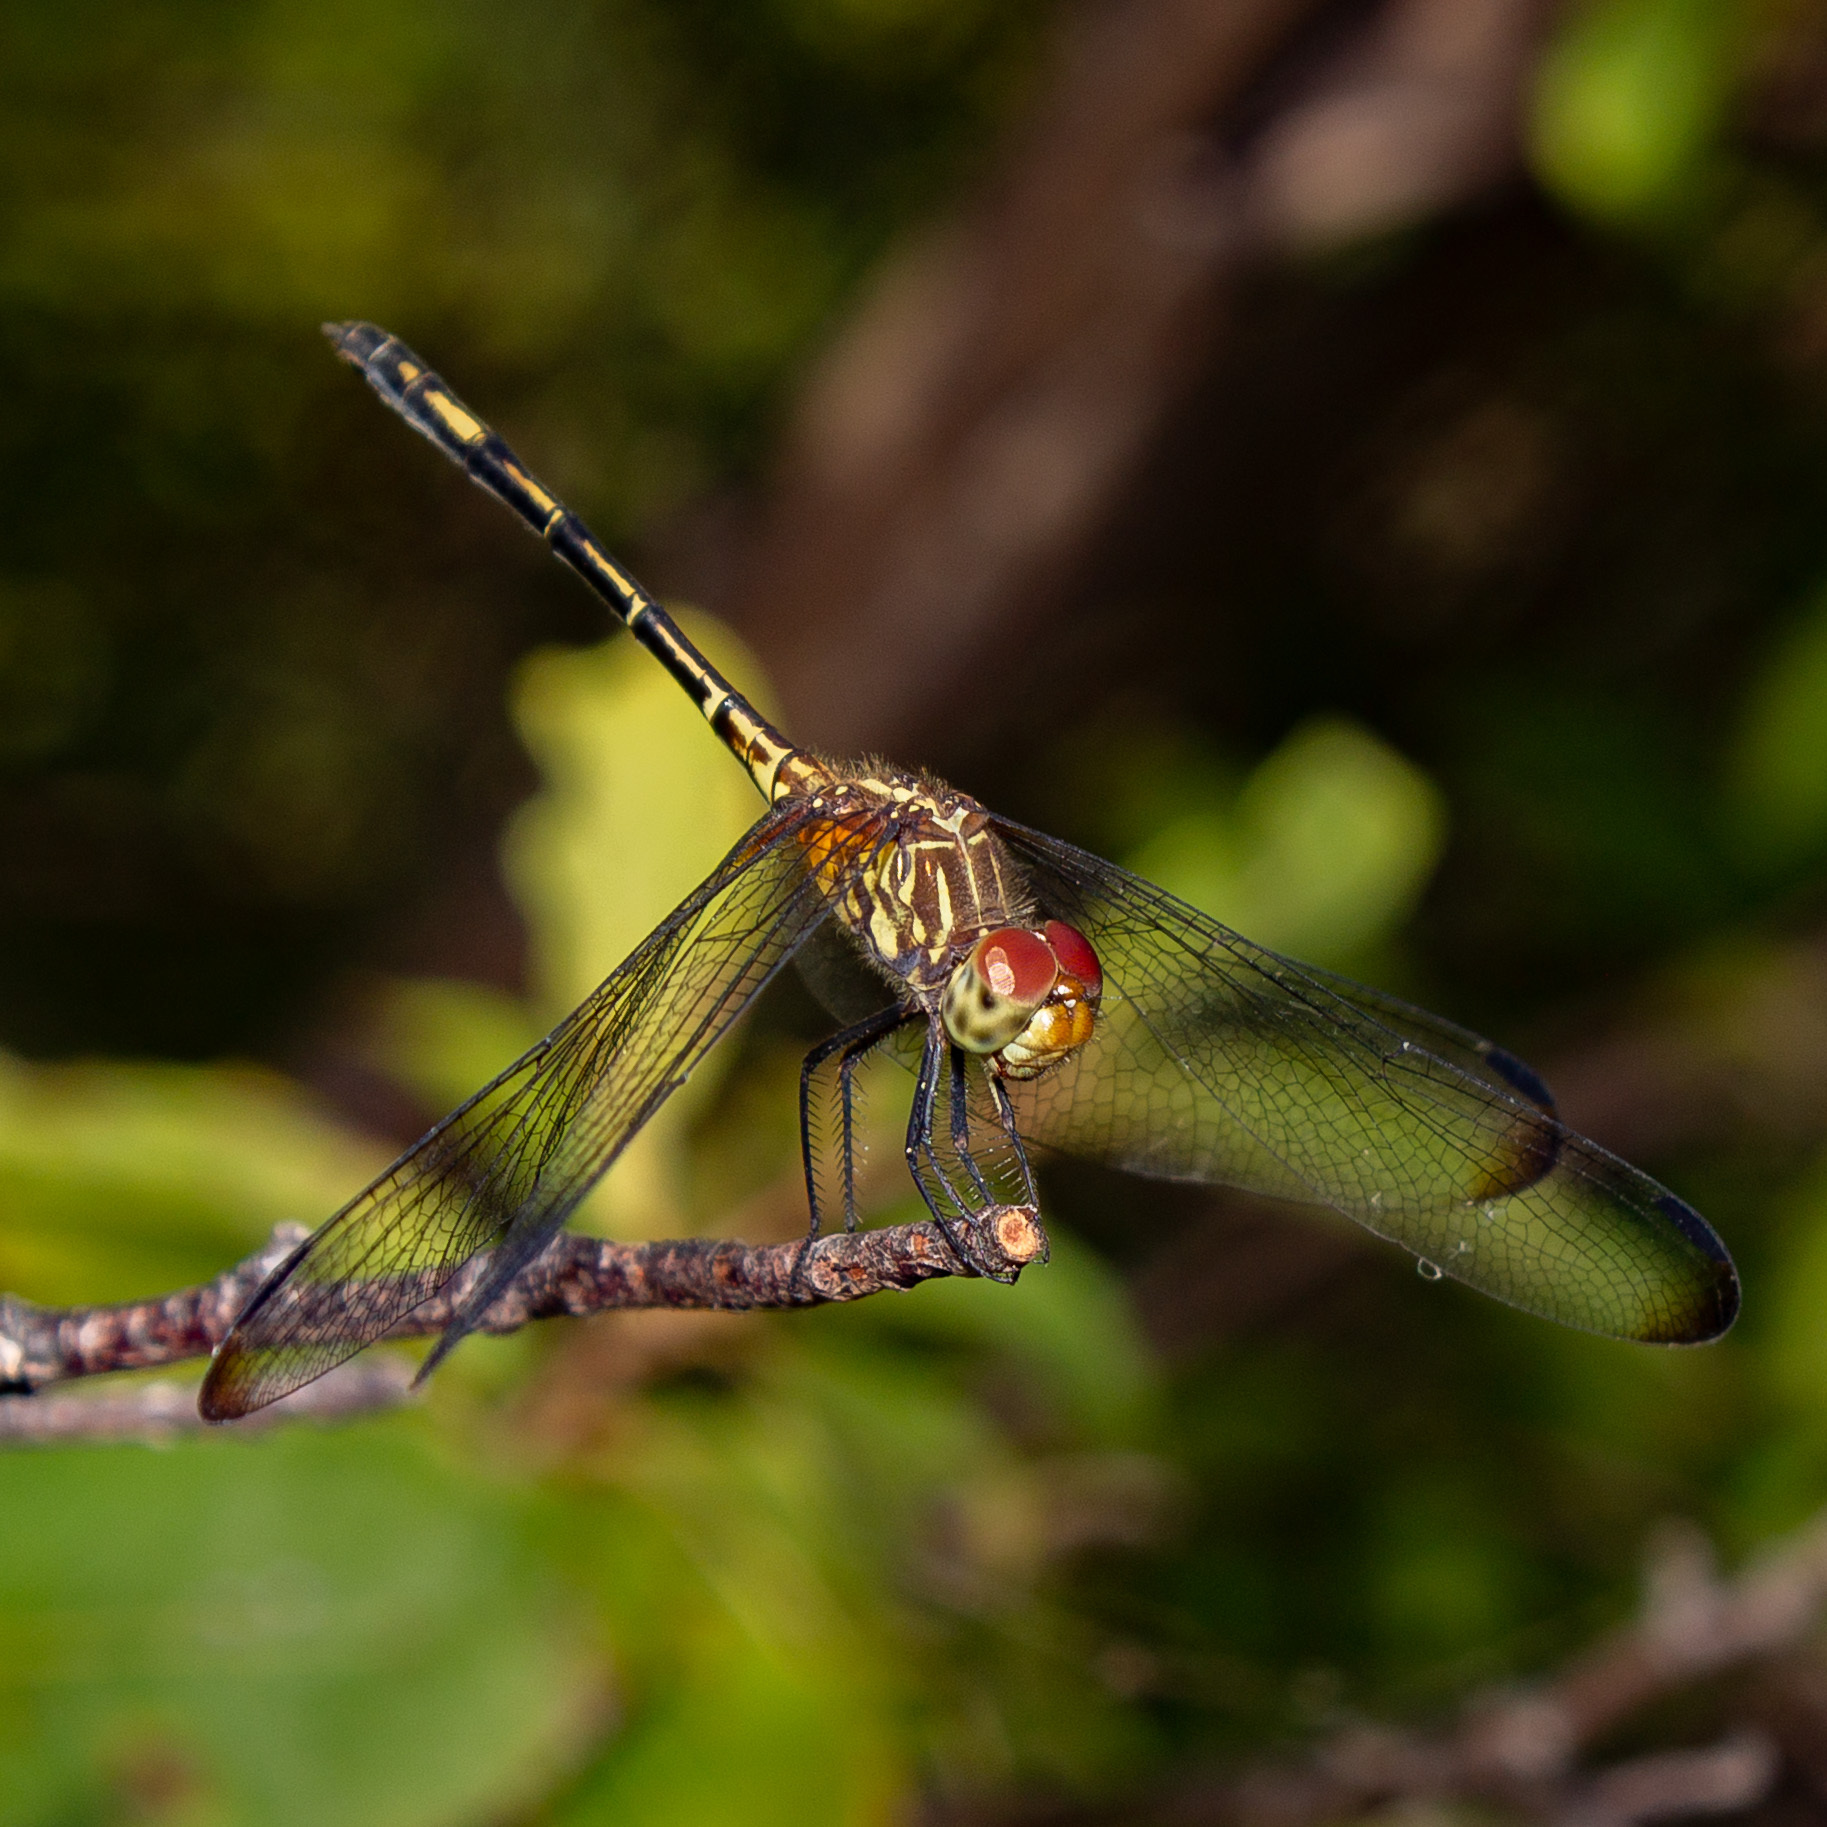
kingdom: Animalia
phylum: Arthropoda
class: Insecta
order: Odonata
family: Libellulidae
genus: Dythemis
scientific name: Dythemis sterilis
